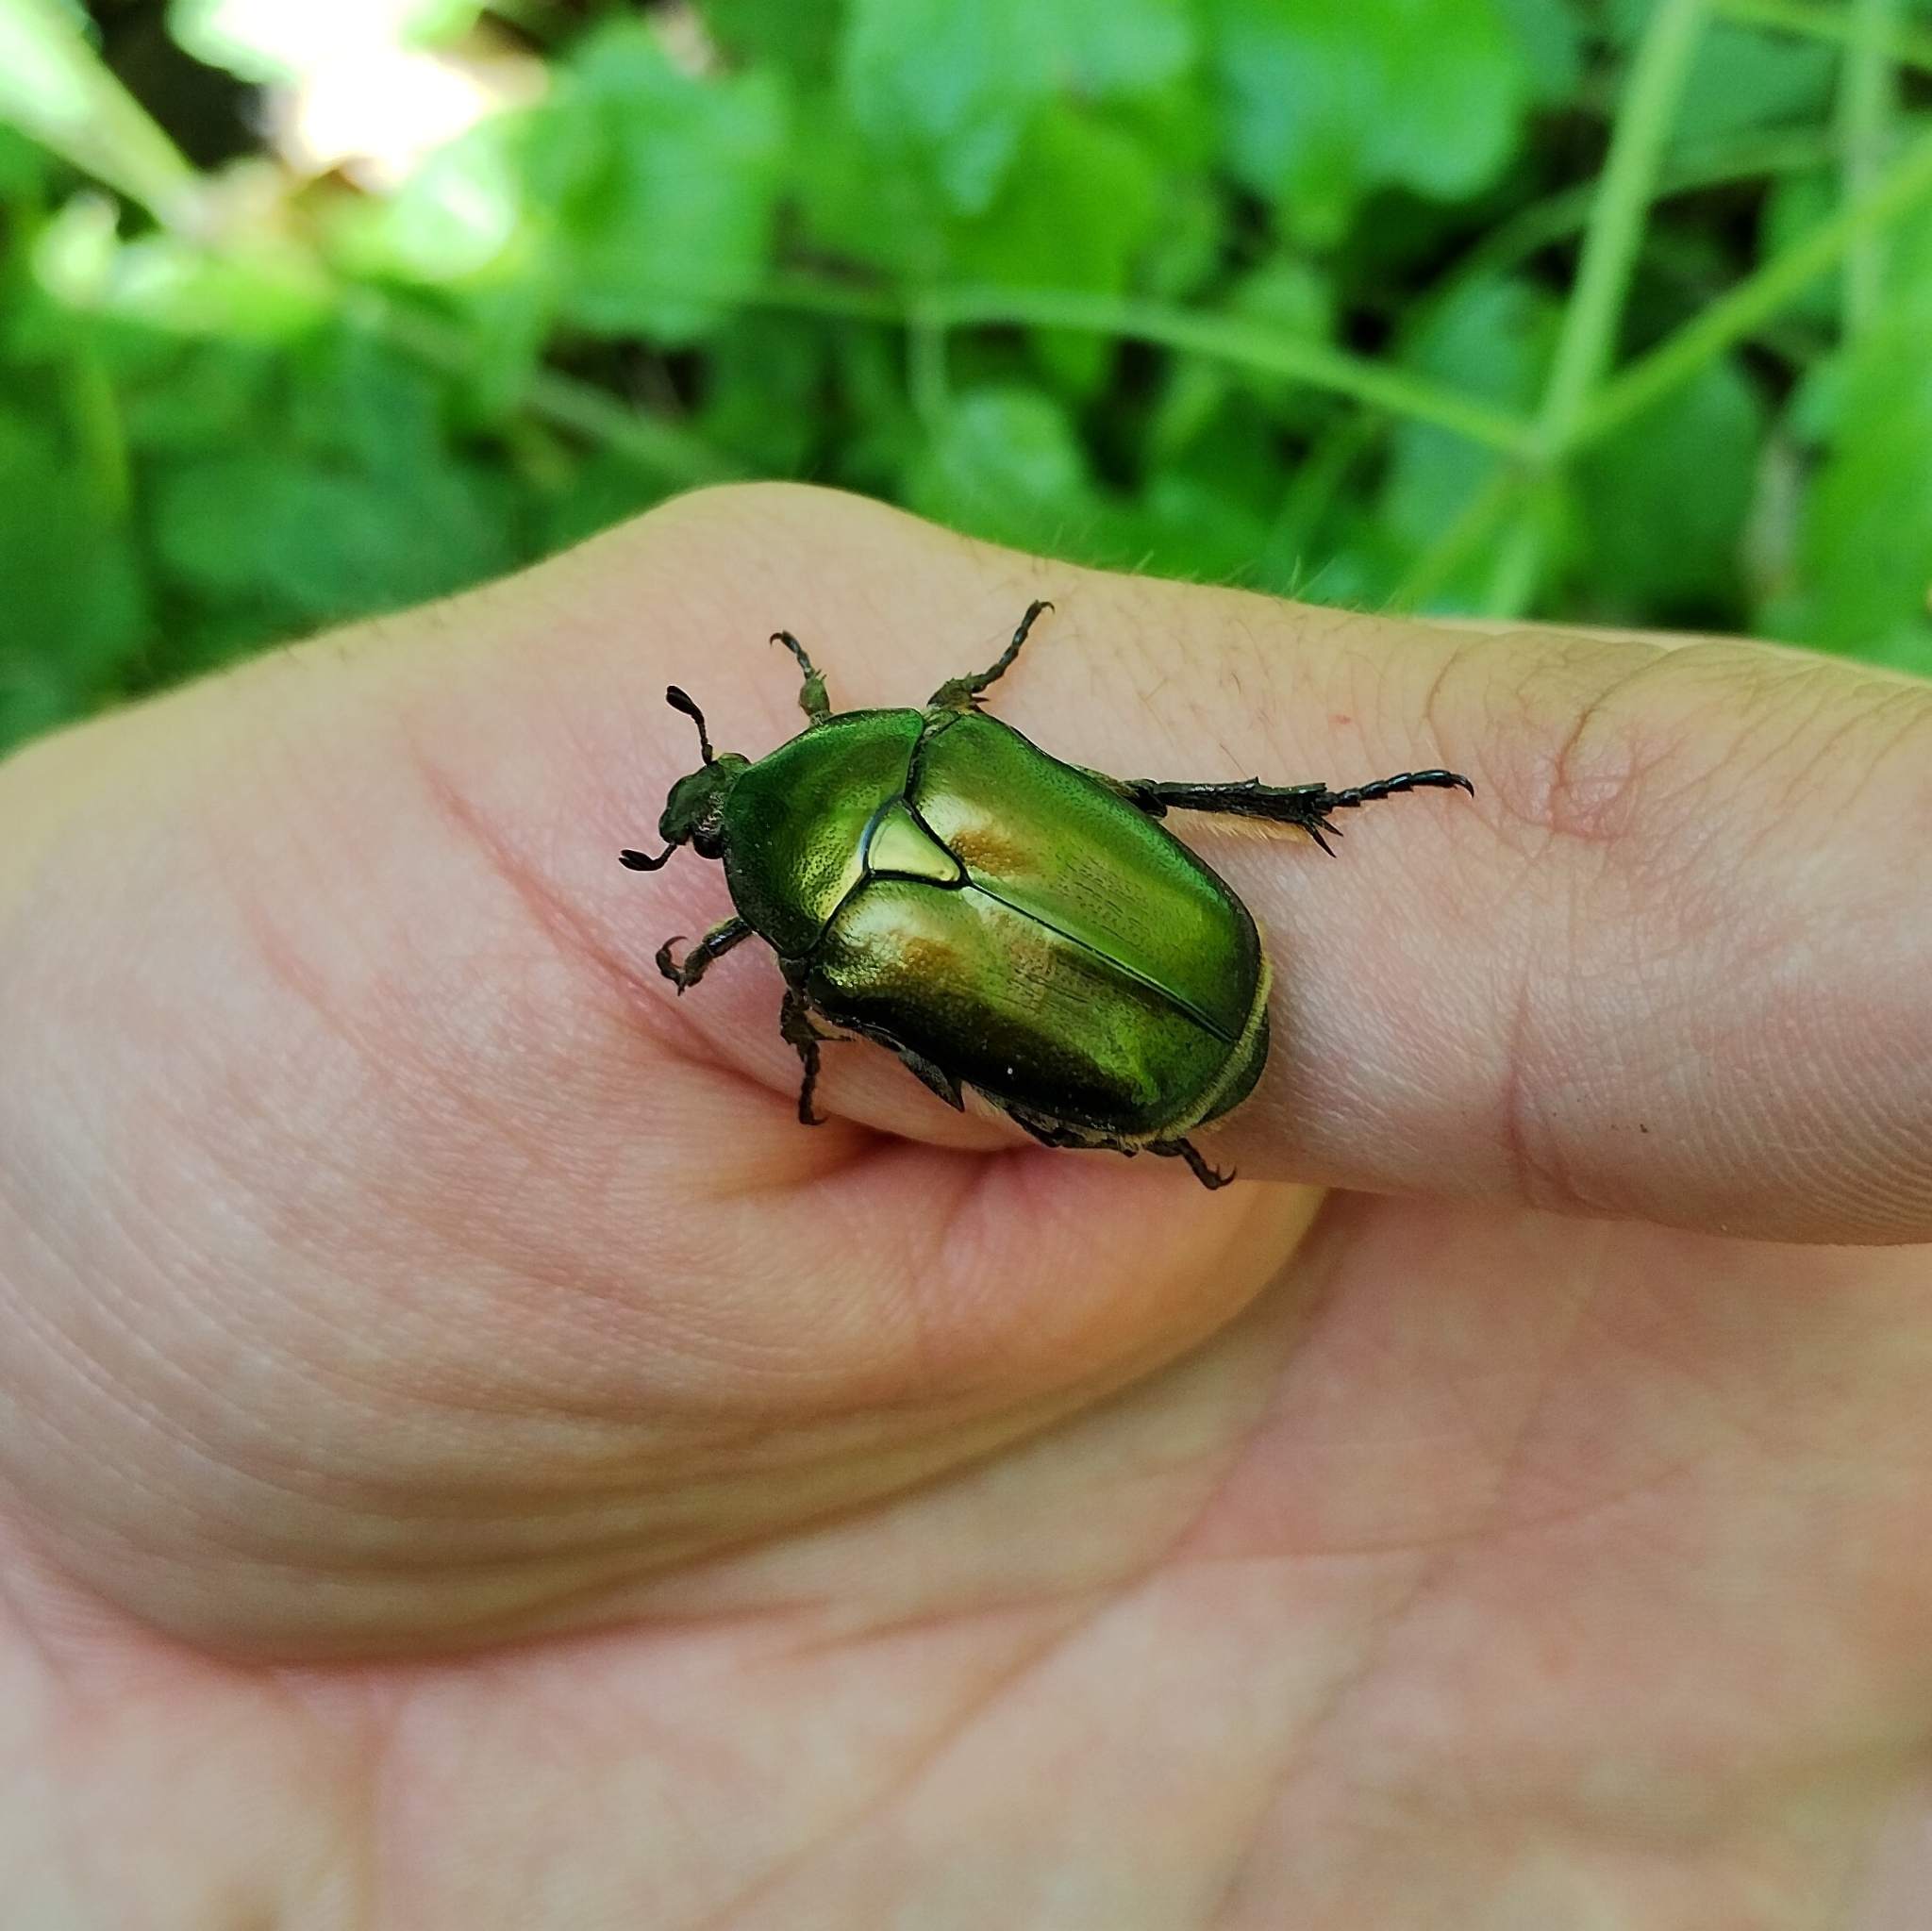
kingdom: Animalia
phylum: Arthropoda
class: Insecta
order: Coleoptera
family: Scarabaeidae
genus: Protaetia
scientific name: Protaetia cuprea
